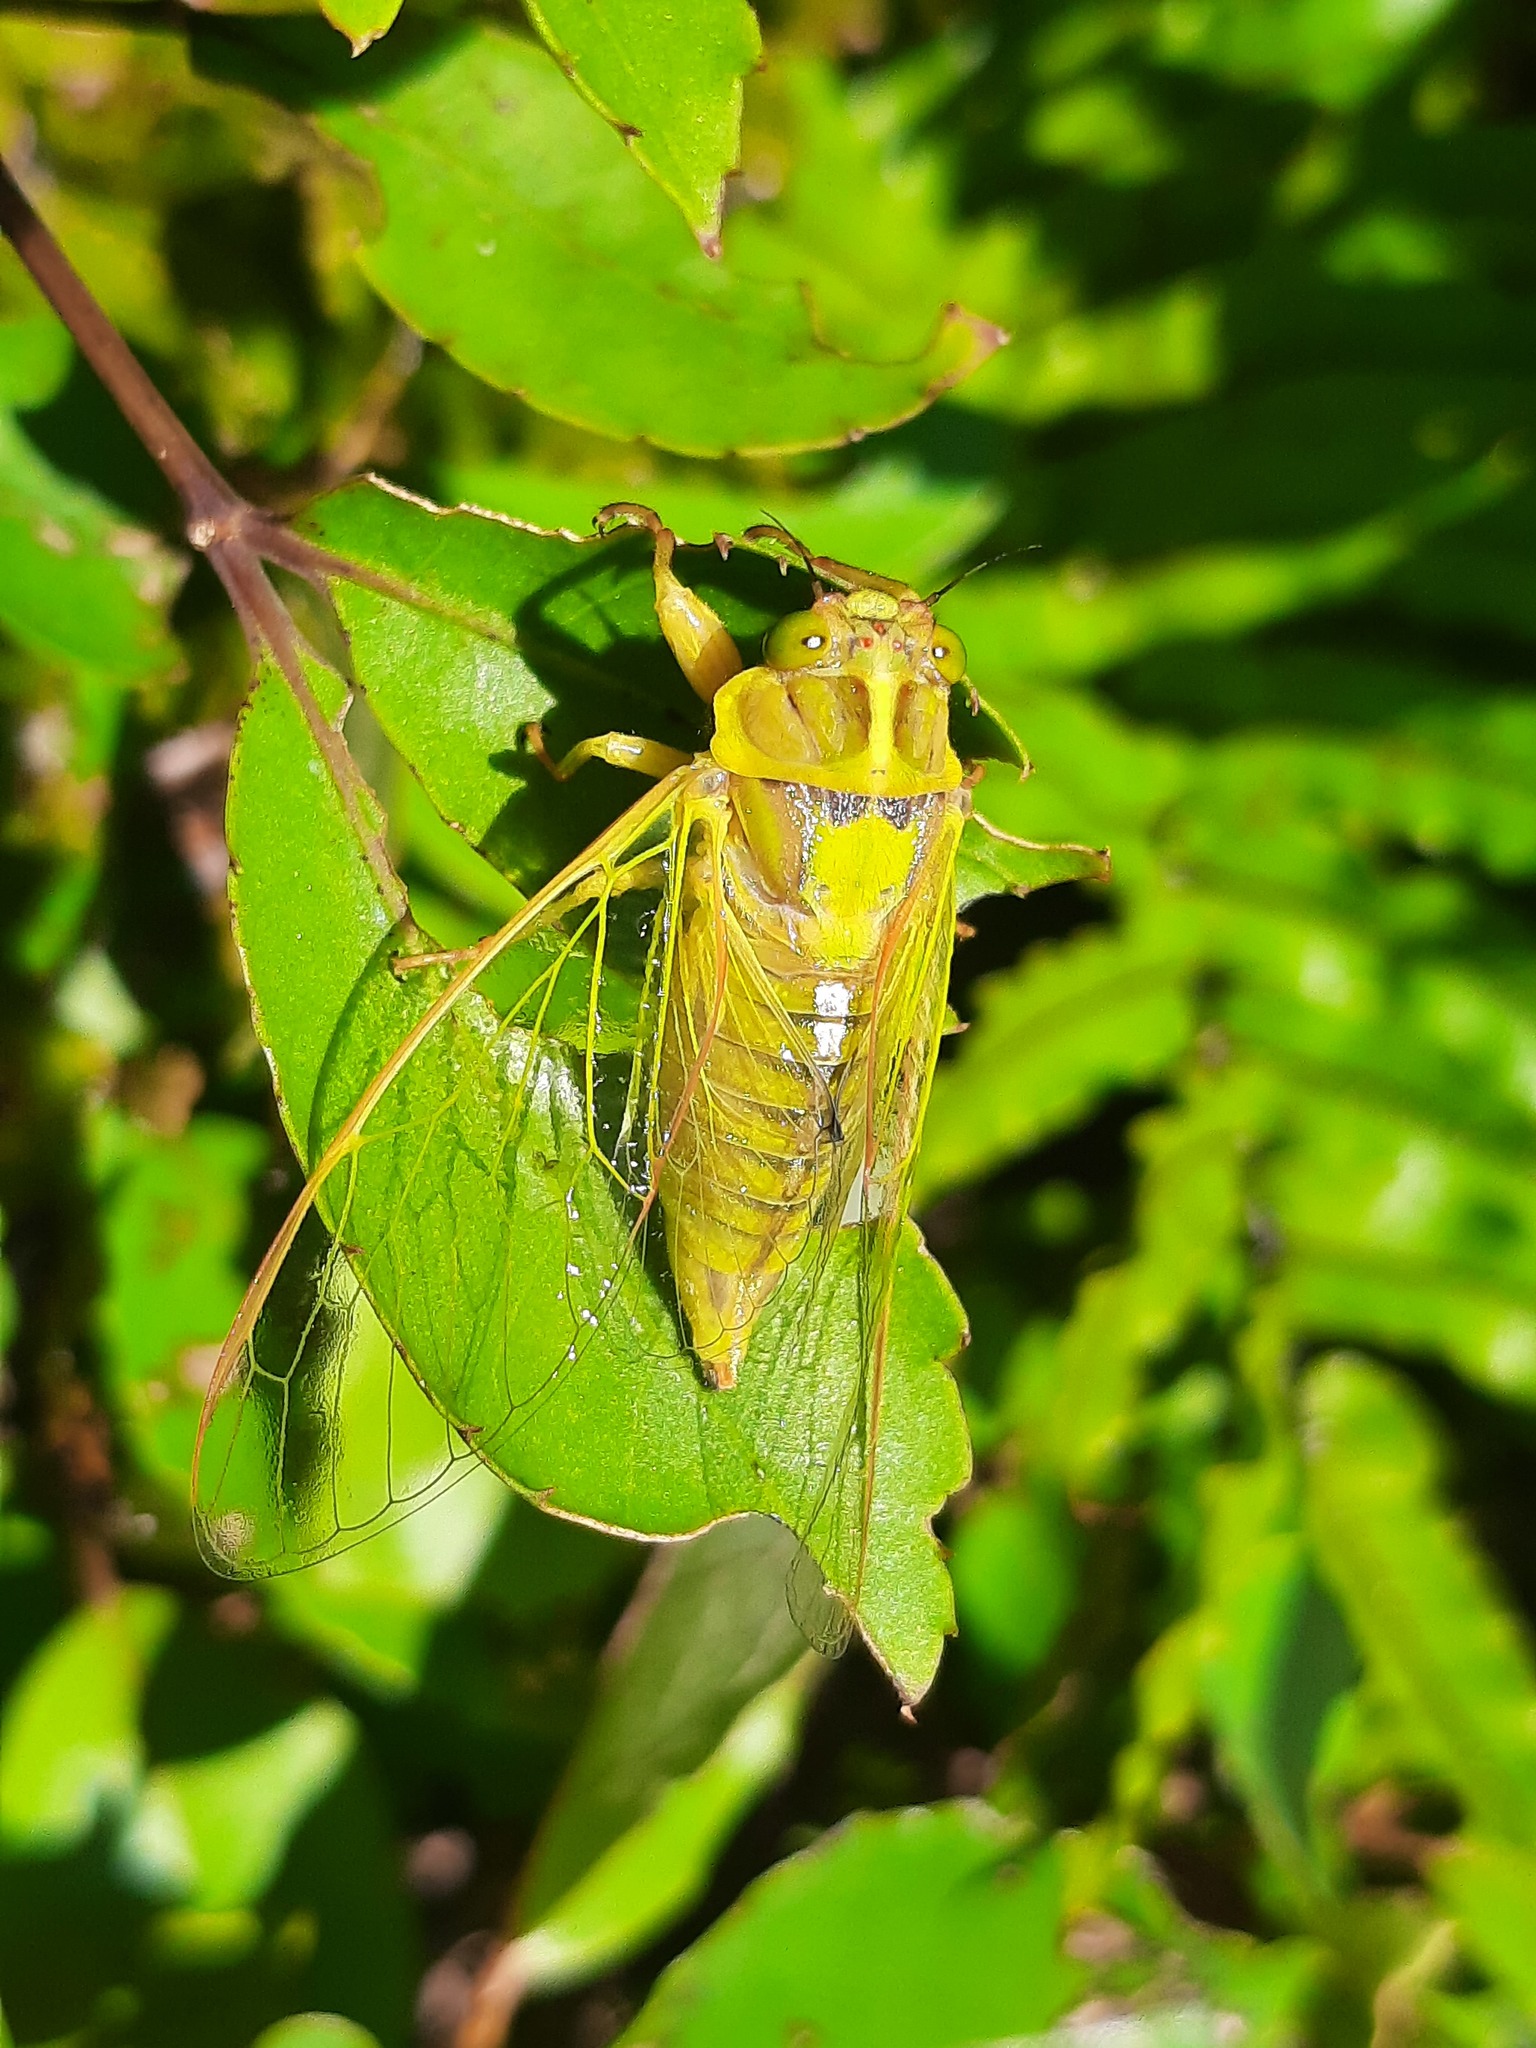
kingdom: Animalia
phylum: Arthropoda
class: Insecta
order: Hemiptera
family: Cicadidae
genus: Kikihia
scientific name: Kikihia subalpina
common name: Chathams cicada
